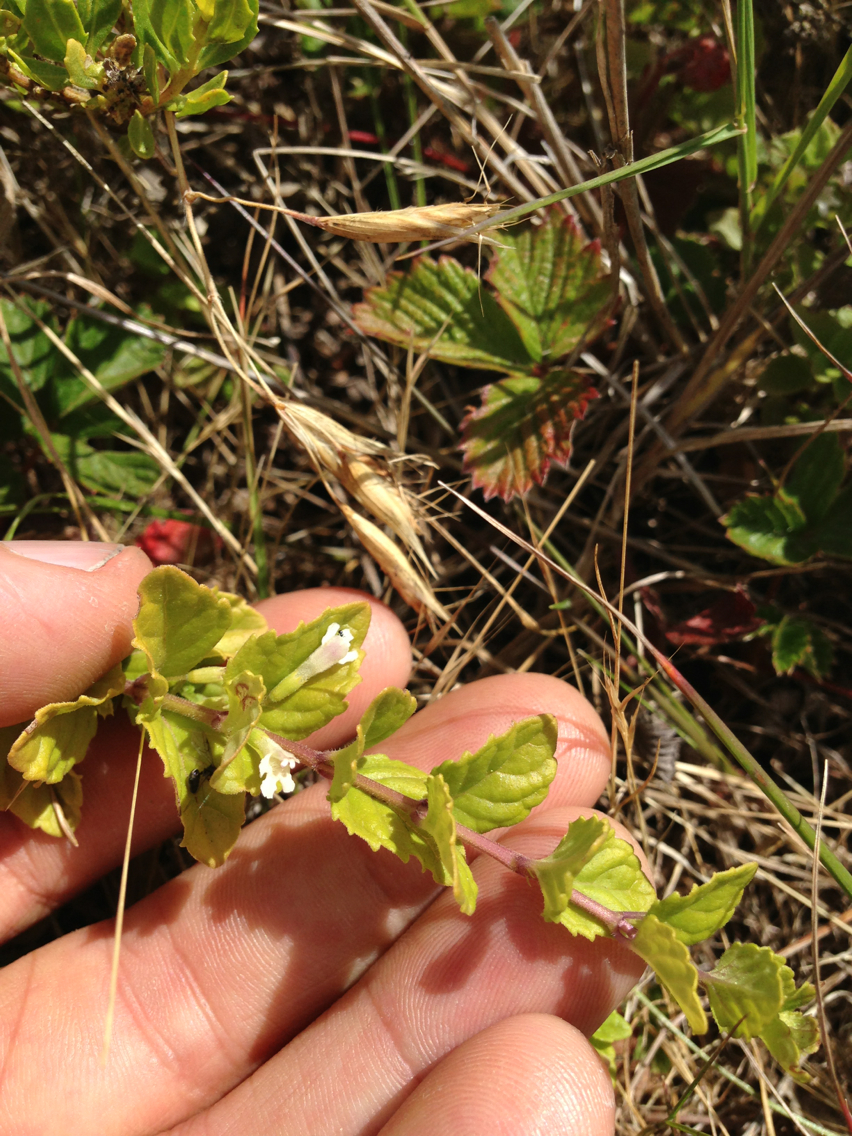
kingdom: Plantae
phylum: Tracheophyta
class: Magnoliopsida
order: Lamiales
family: Lamiaceae
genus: Micromeria
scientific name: Micromeria douglasii
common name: Yerba buena
